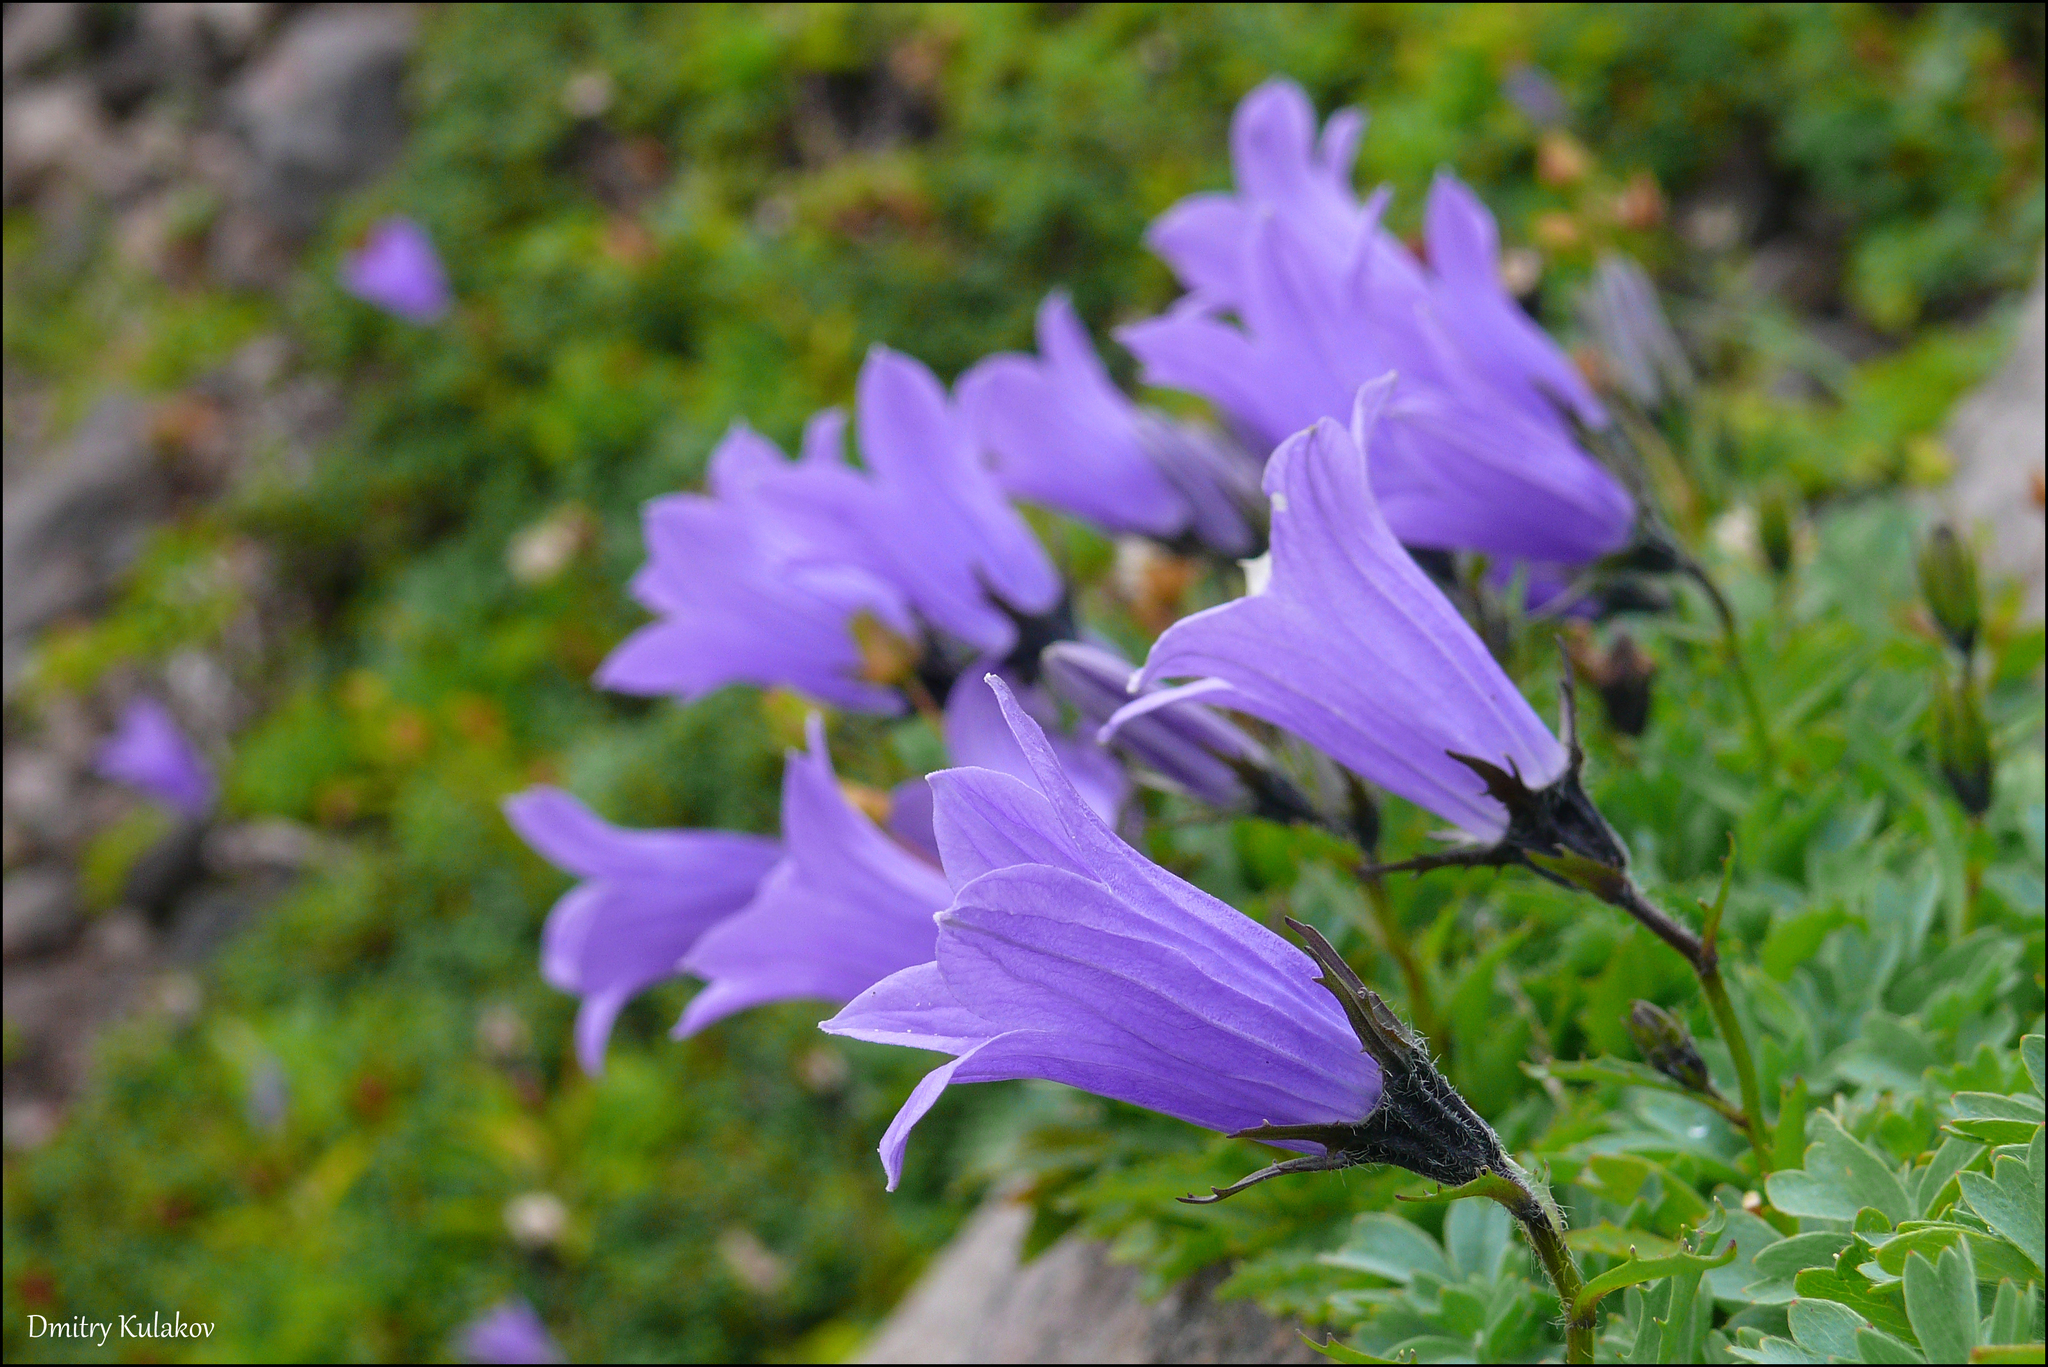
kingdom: Plantae
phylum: Tracheophyta
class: Magnoliopsida
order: Asterales
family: Campanulaceae
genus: Campanula
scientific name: Campanula lasiocarpa
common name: Mountain harebell
